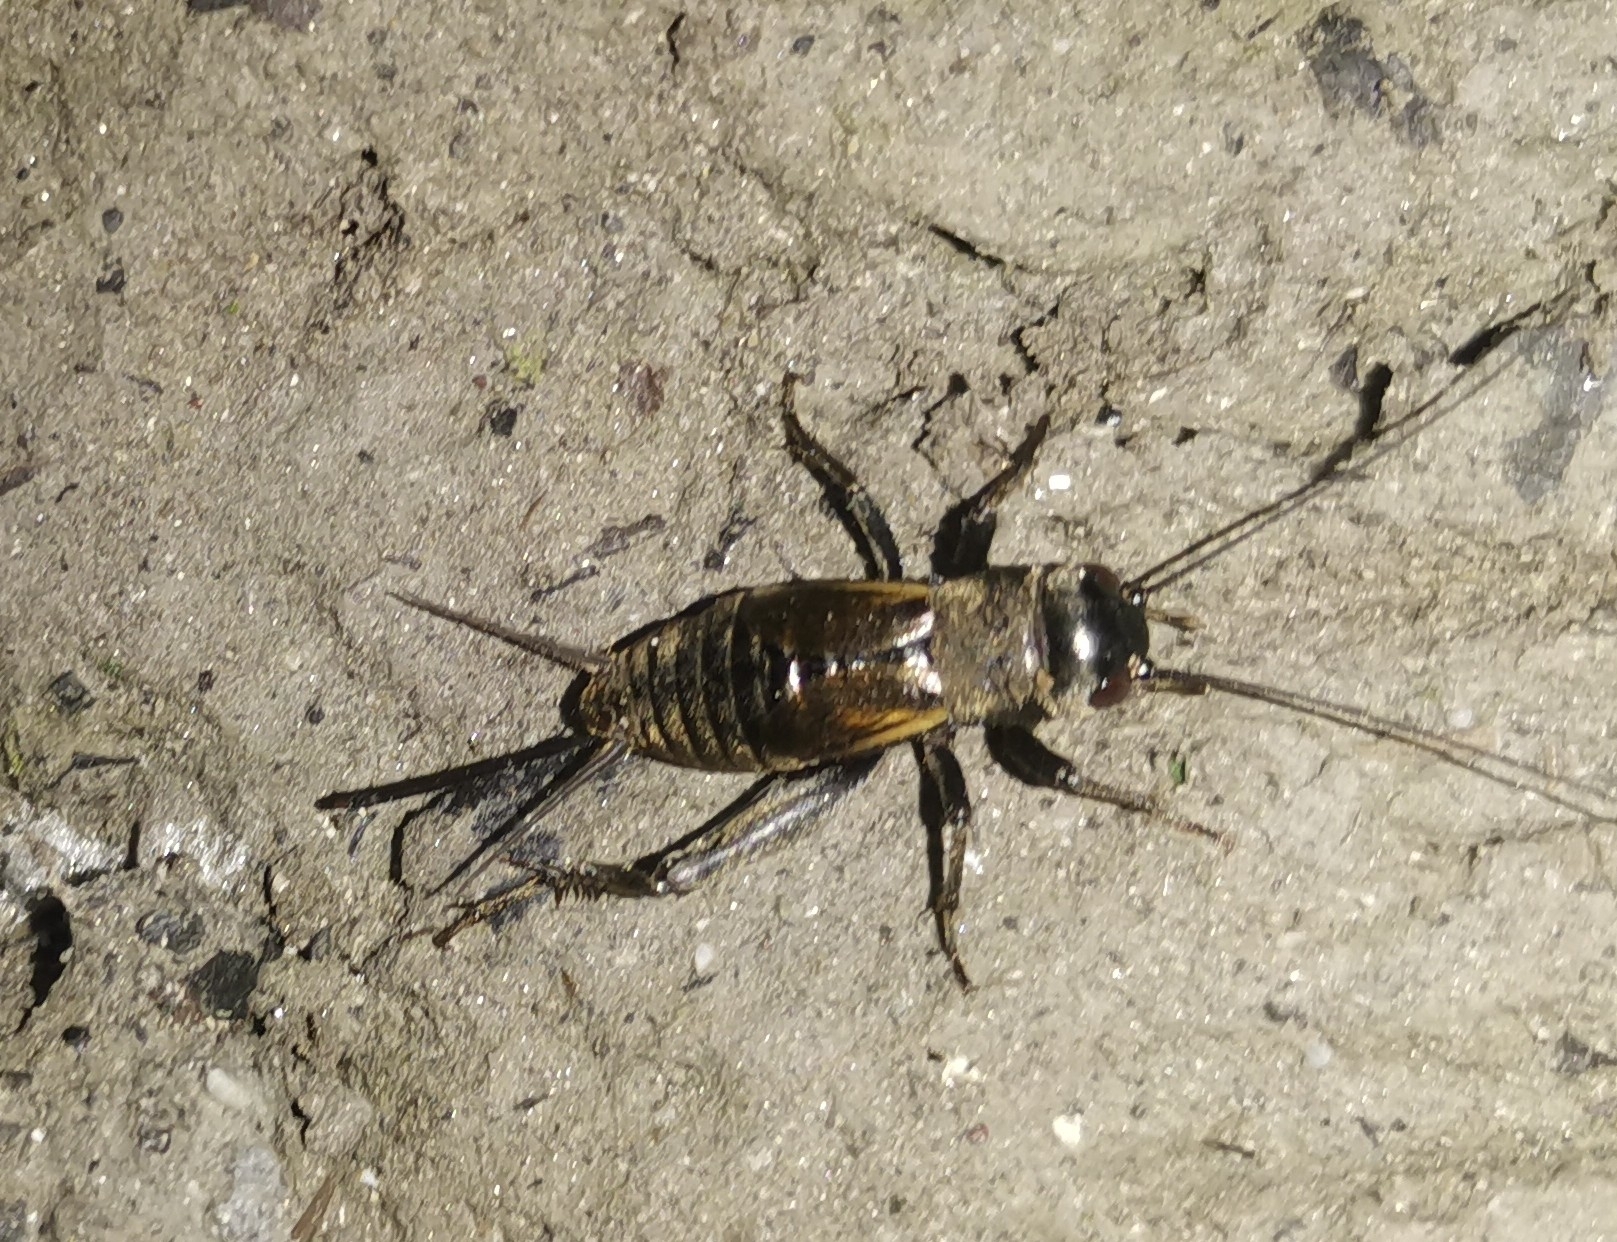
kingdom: Animalia
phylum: Arthropoda
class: Insecta
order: Orthoptera
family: Gryllidae
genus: Melanogryllus
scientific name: Melanogryllus desertus
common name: Desert cricket
